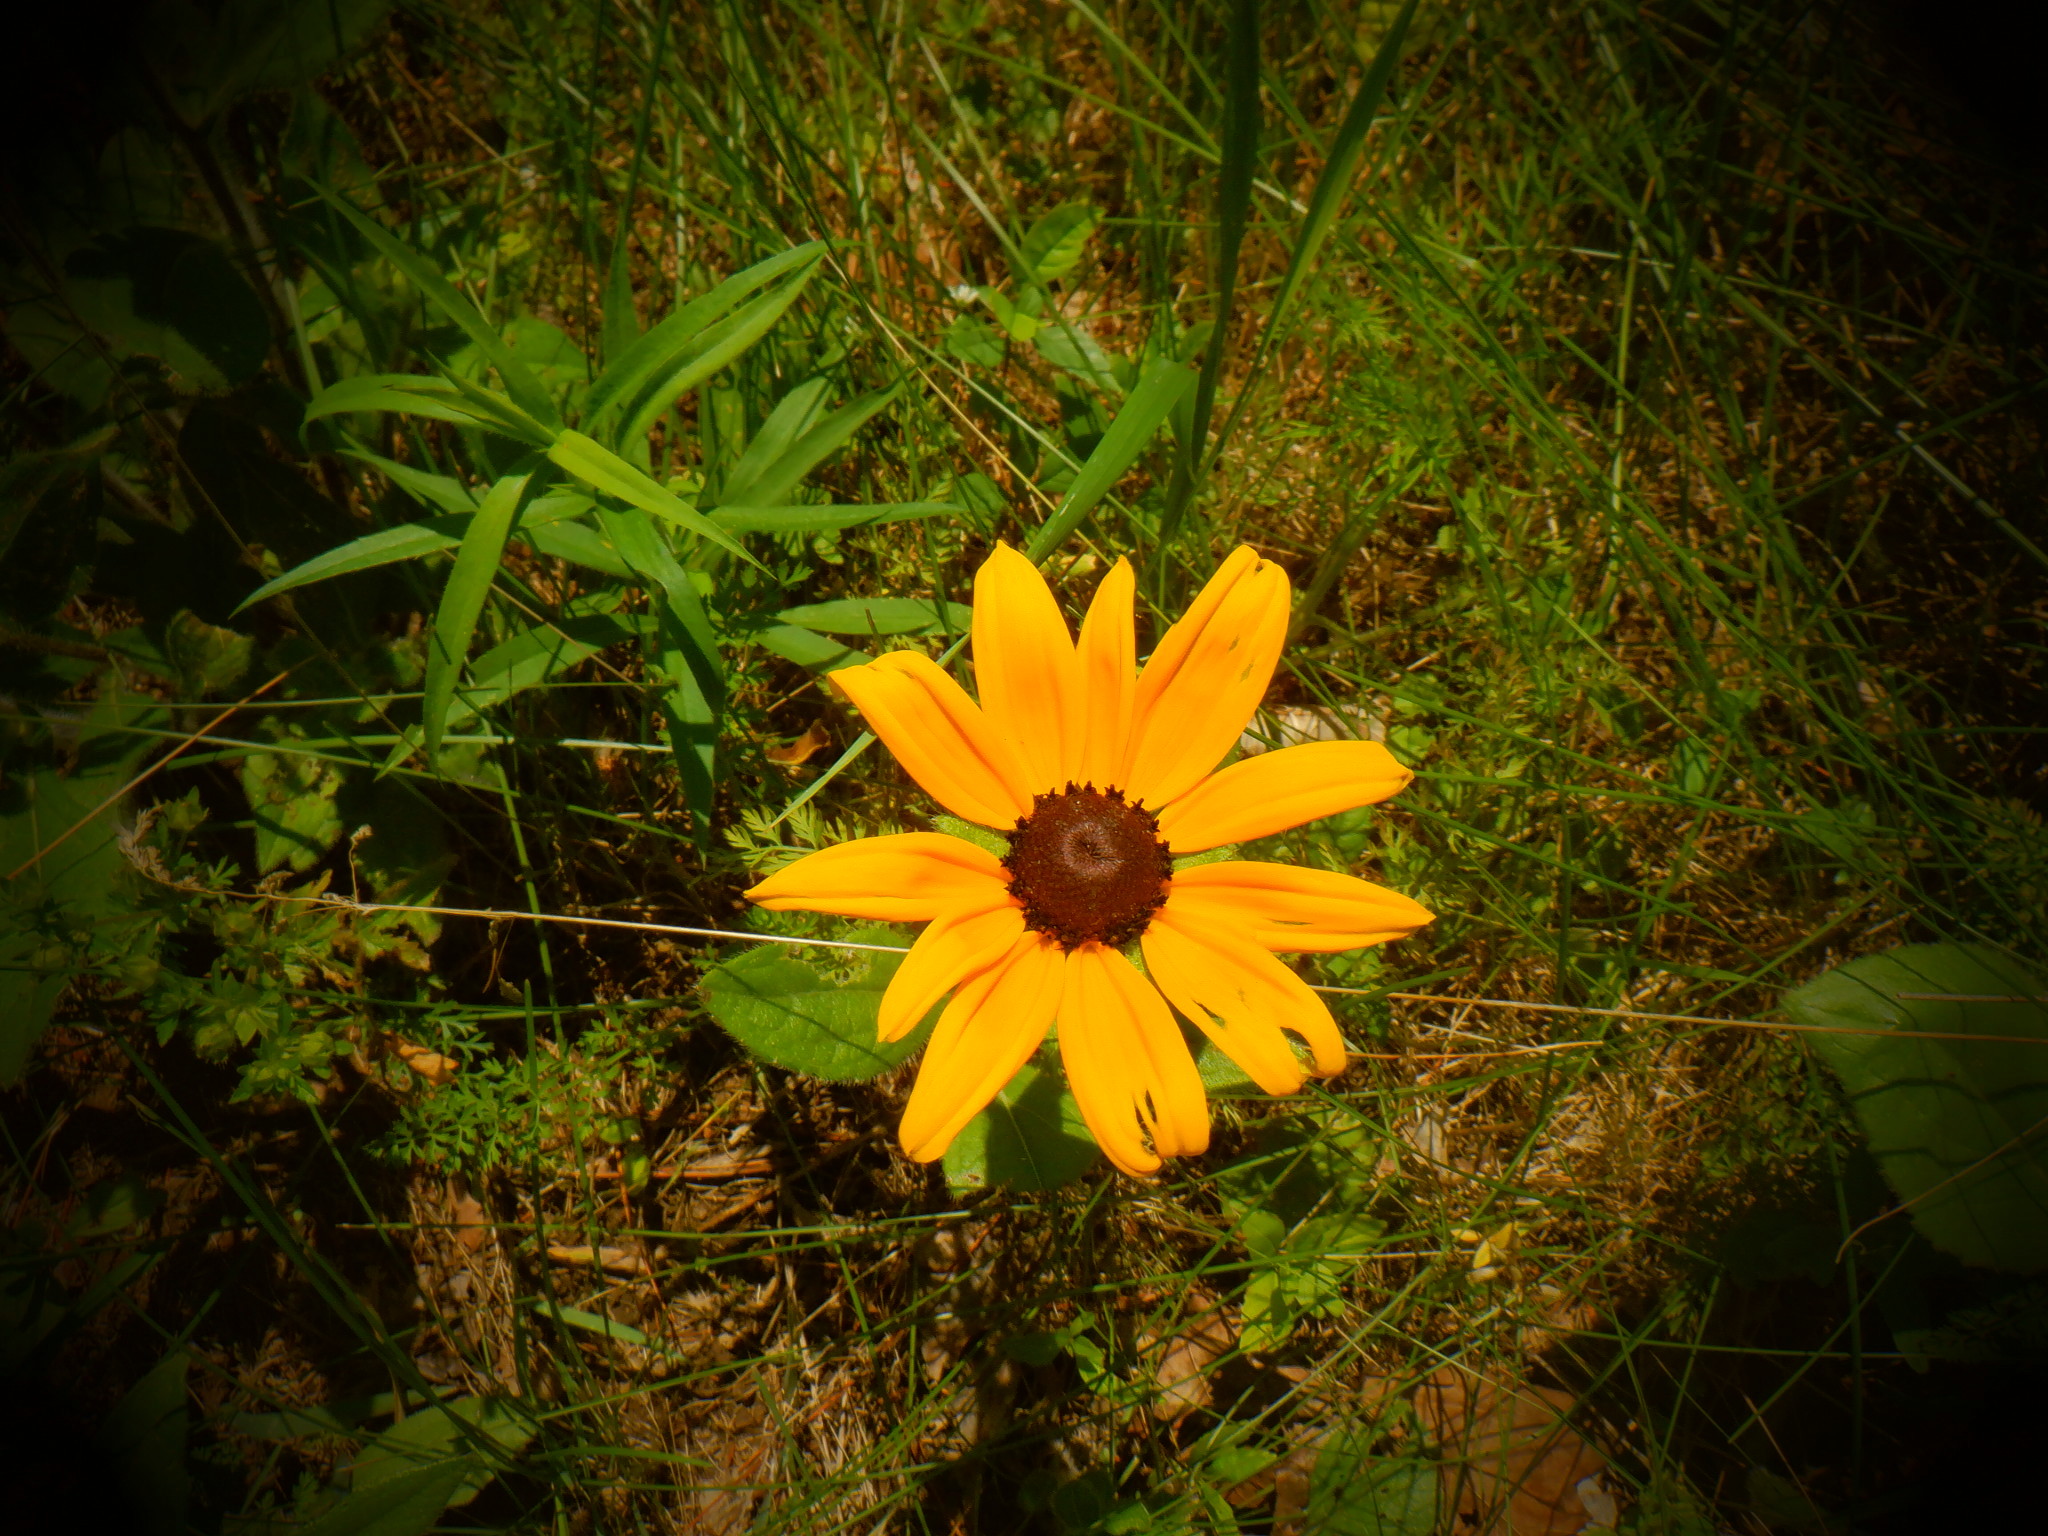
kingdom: Plantae
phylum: Tracheophyta
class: Magnoliopsida
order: Asterales
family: Asteraceae
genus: Rudbeckia
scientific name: Rudbeckia hirta
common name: Black-eyed-susan
